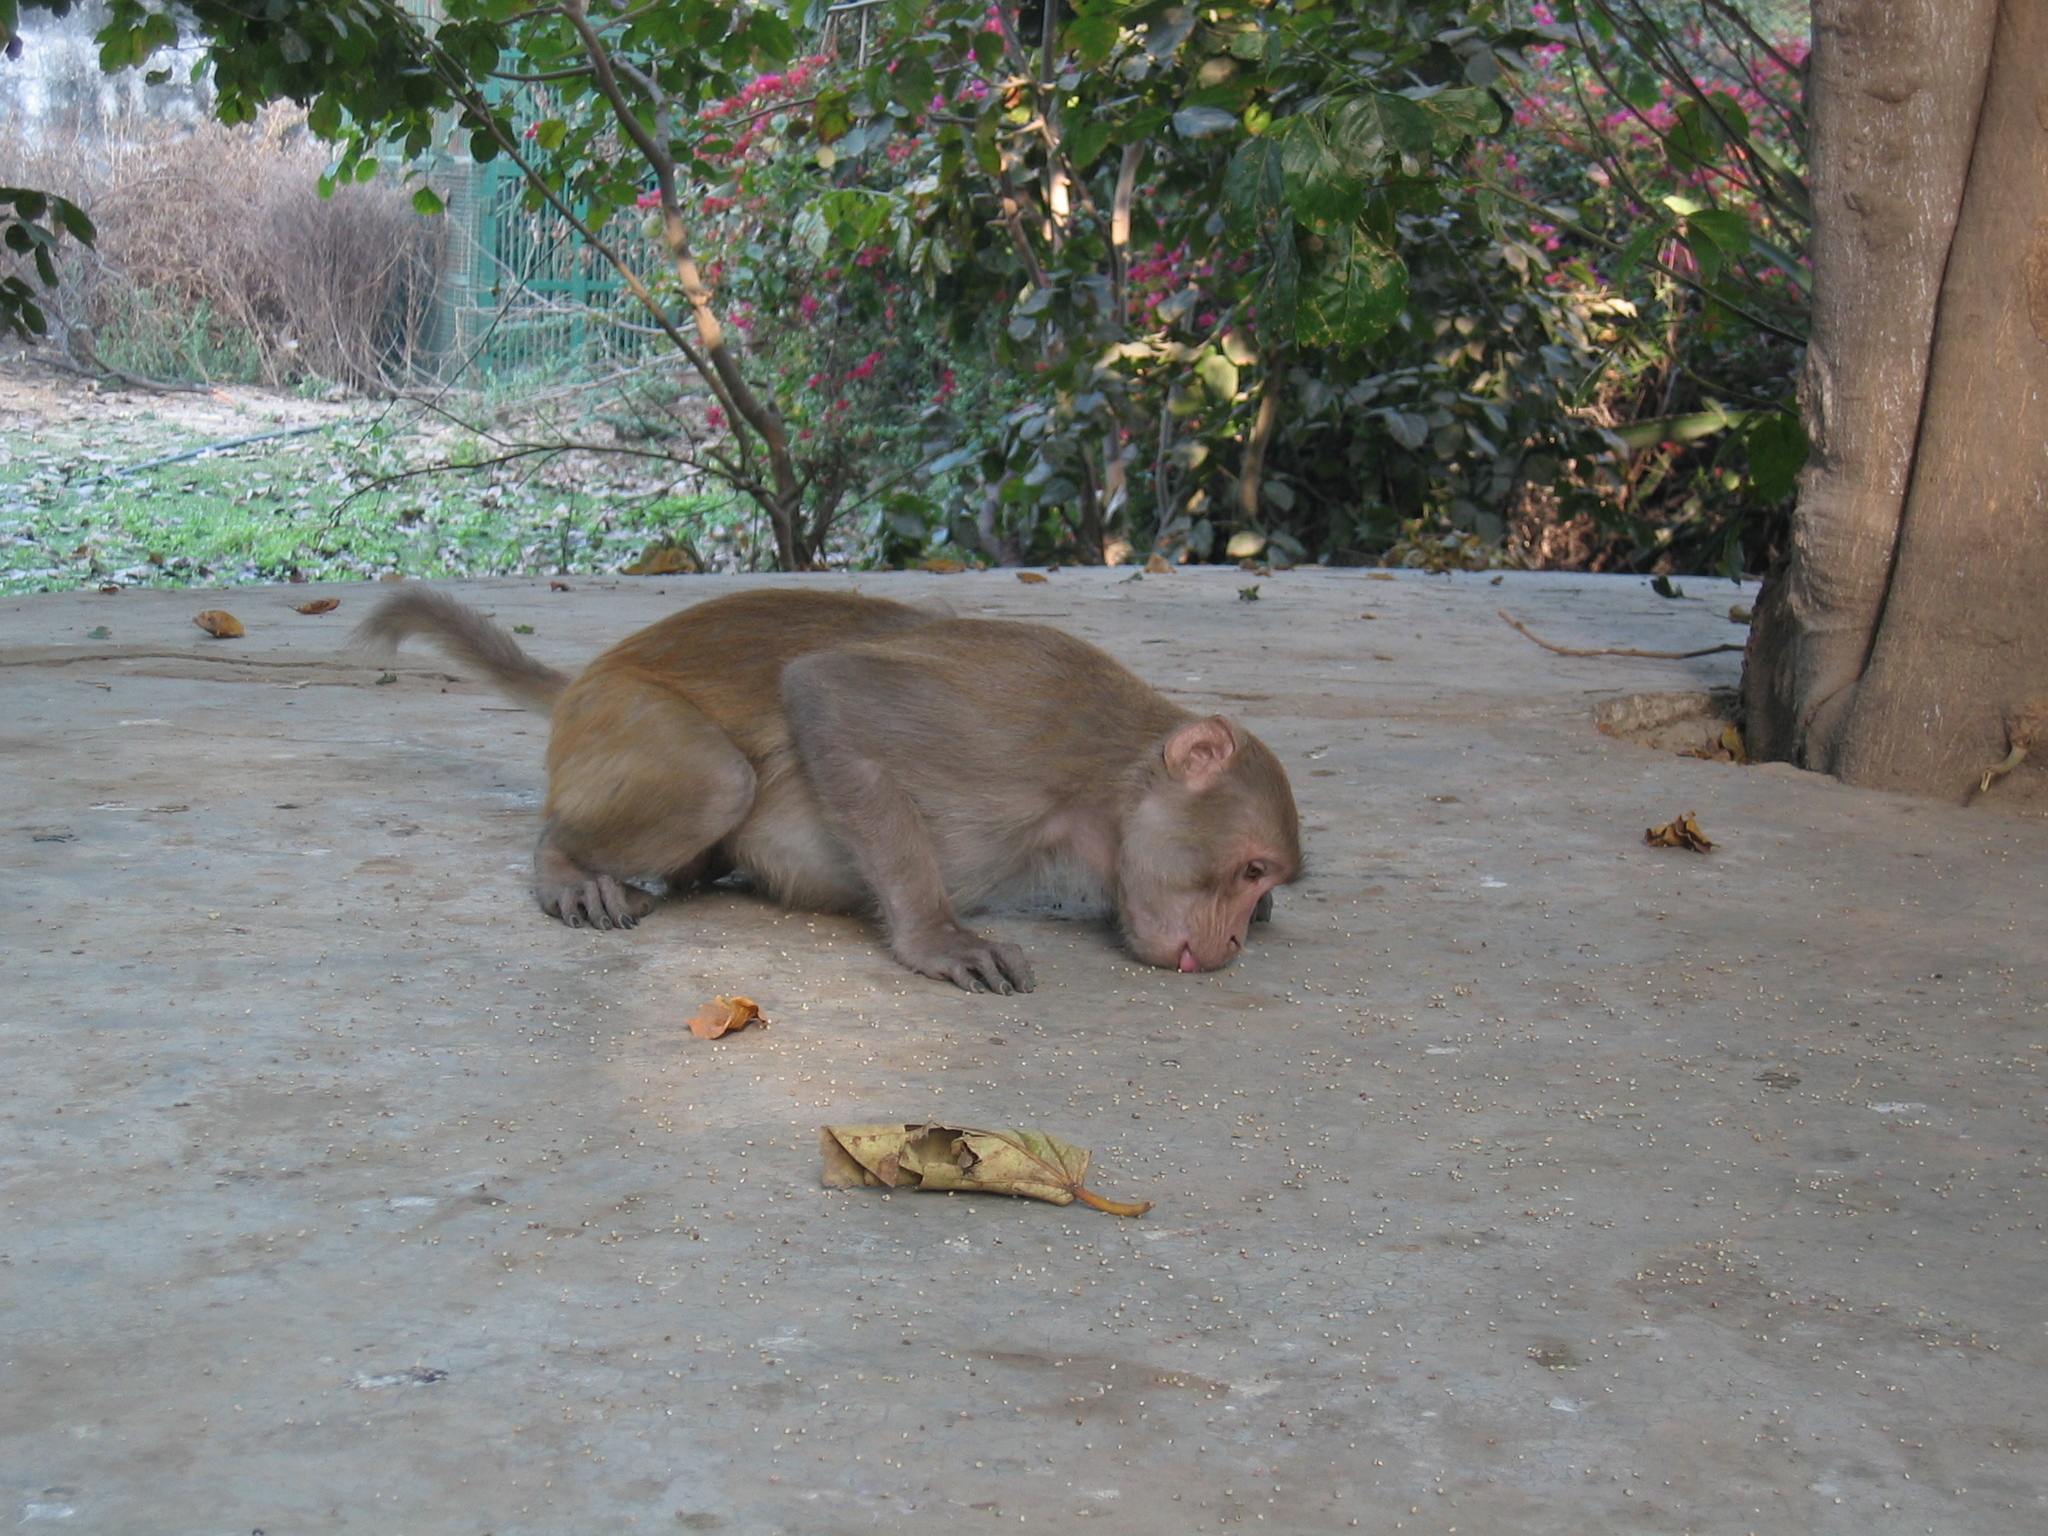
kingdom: Animalia
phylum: Chordata
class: Mammalia
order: Primates
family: Cercopithecidae
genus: Macaca
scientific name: Macaca mulatta
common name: Rhesus monkey
